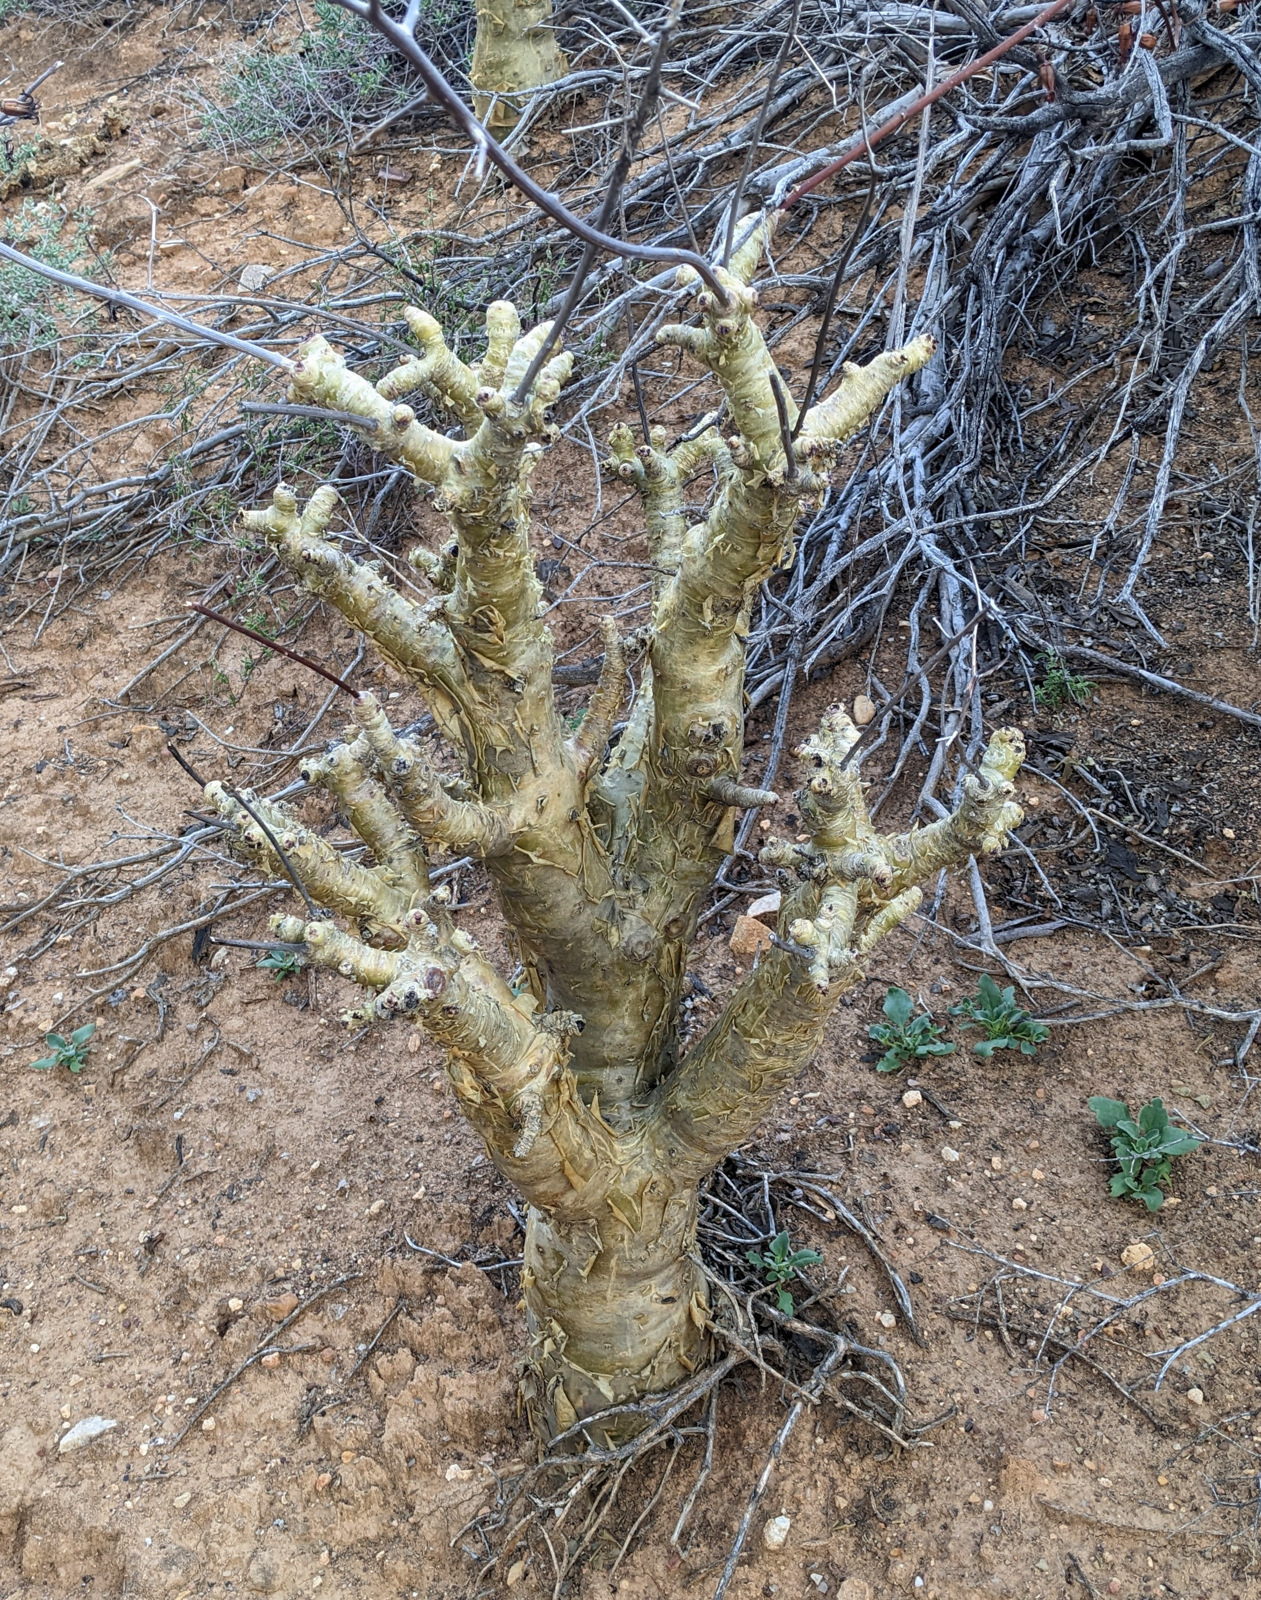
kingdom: Plantae
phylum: Tracheophyta
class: Magnoliopsida
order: Saxifragales
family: Crassulaceae
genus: Tylecodon
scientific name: Tylecodon paniculatus
